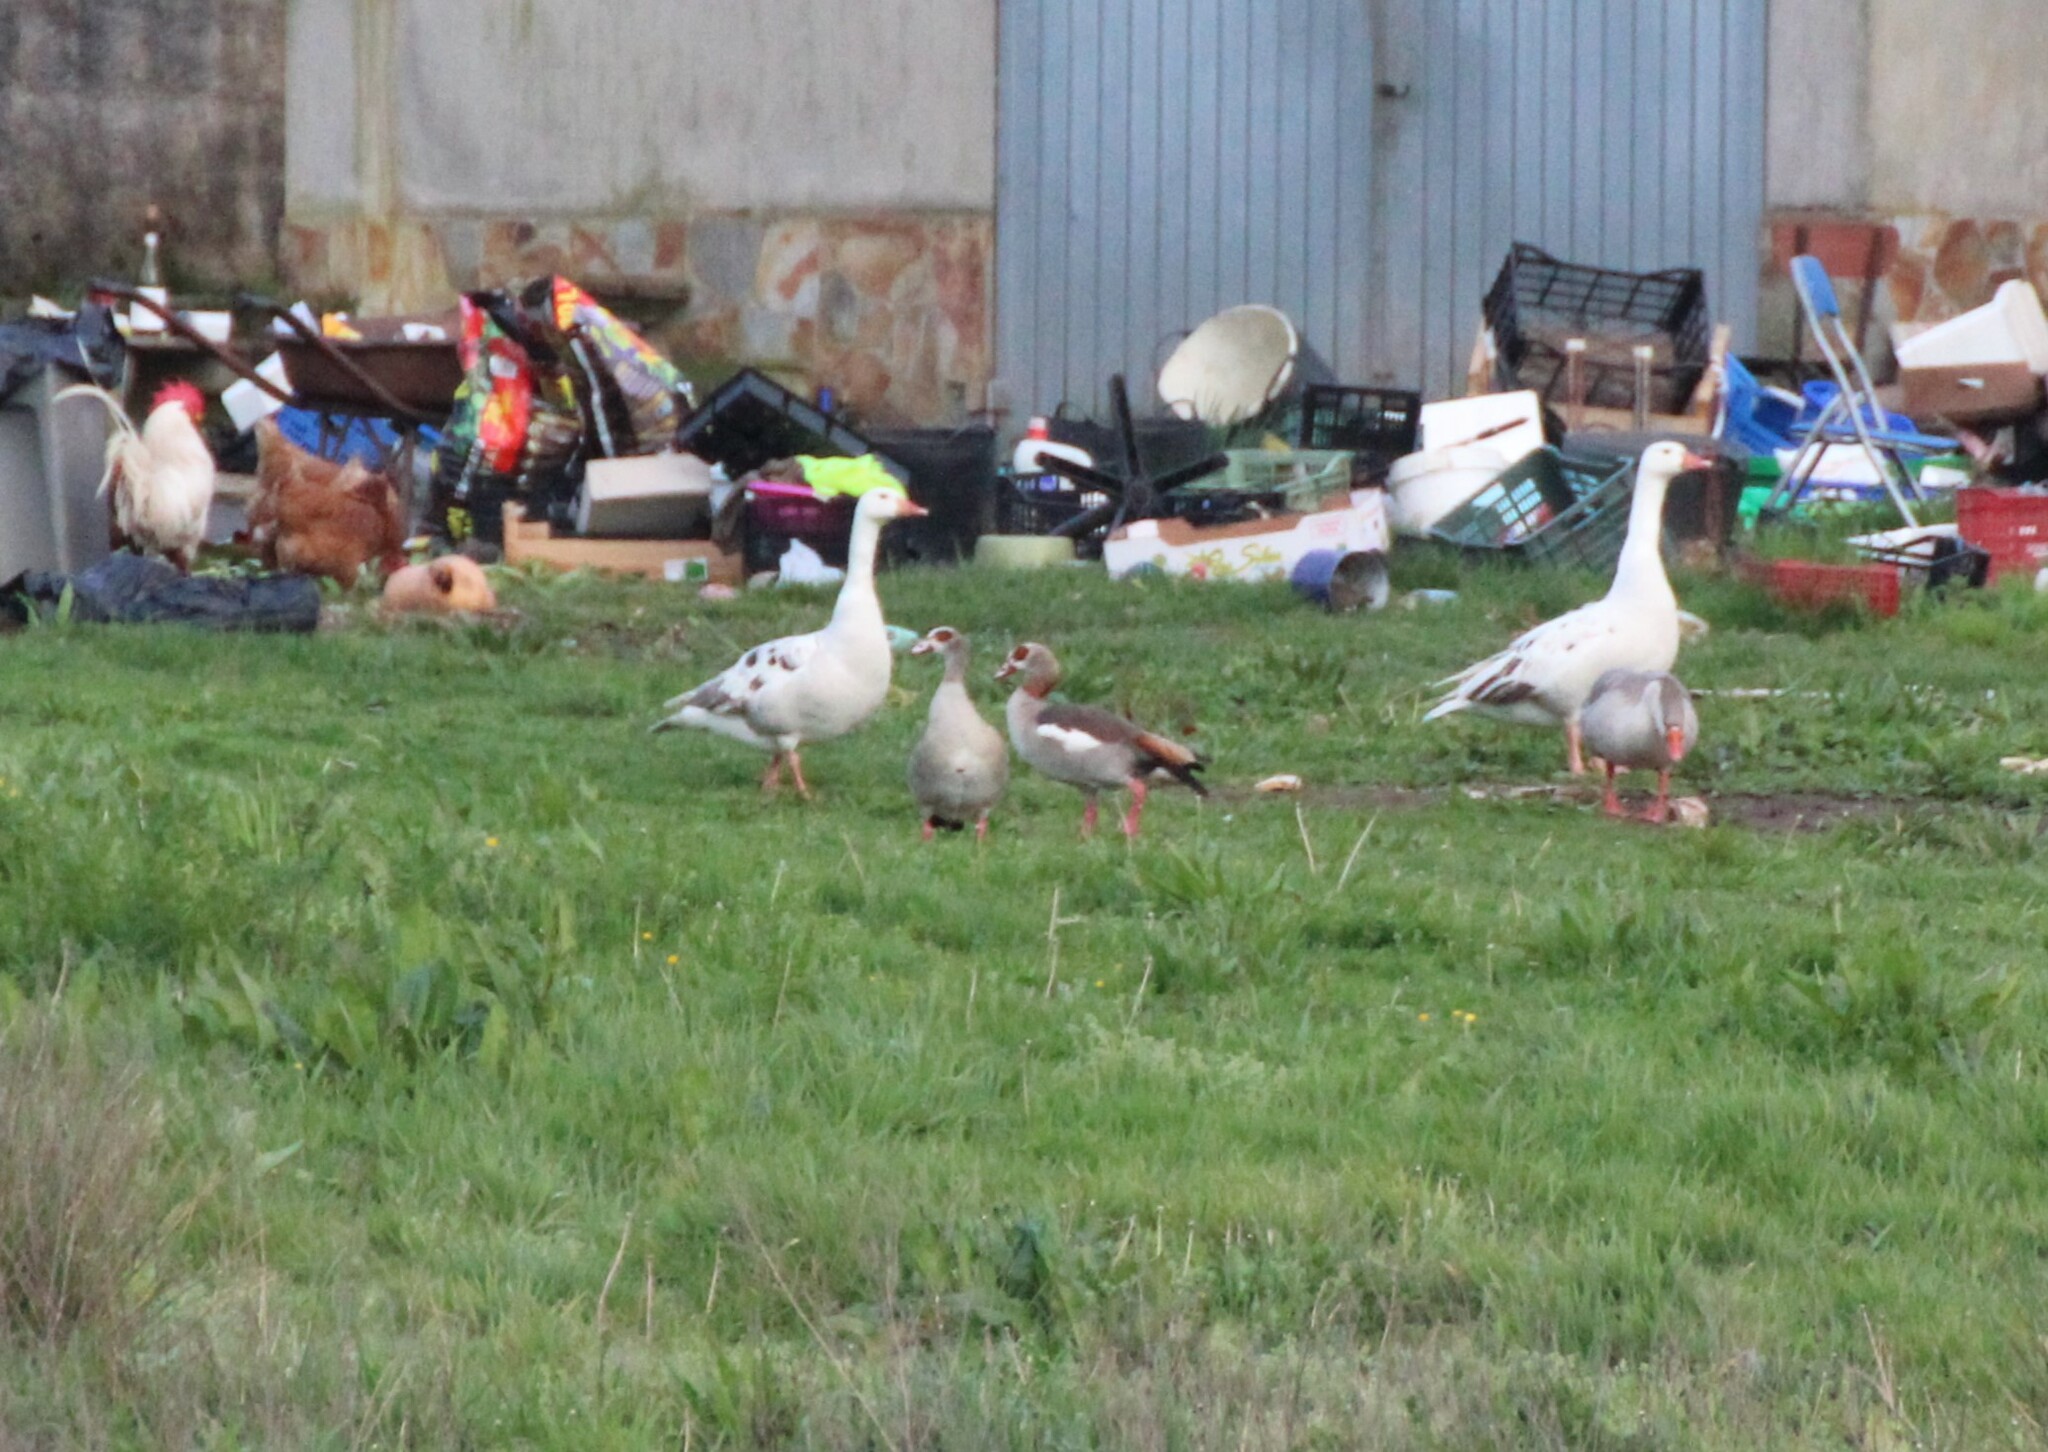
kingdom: Animalia
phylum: Chordata
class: Aves
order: Anseriformes
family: Anatidae
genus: Alopochen
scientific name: Alopochen aegyptiaca
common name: Egyptian goose
